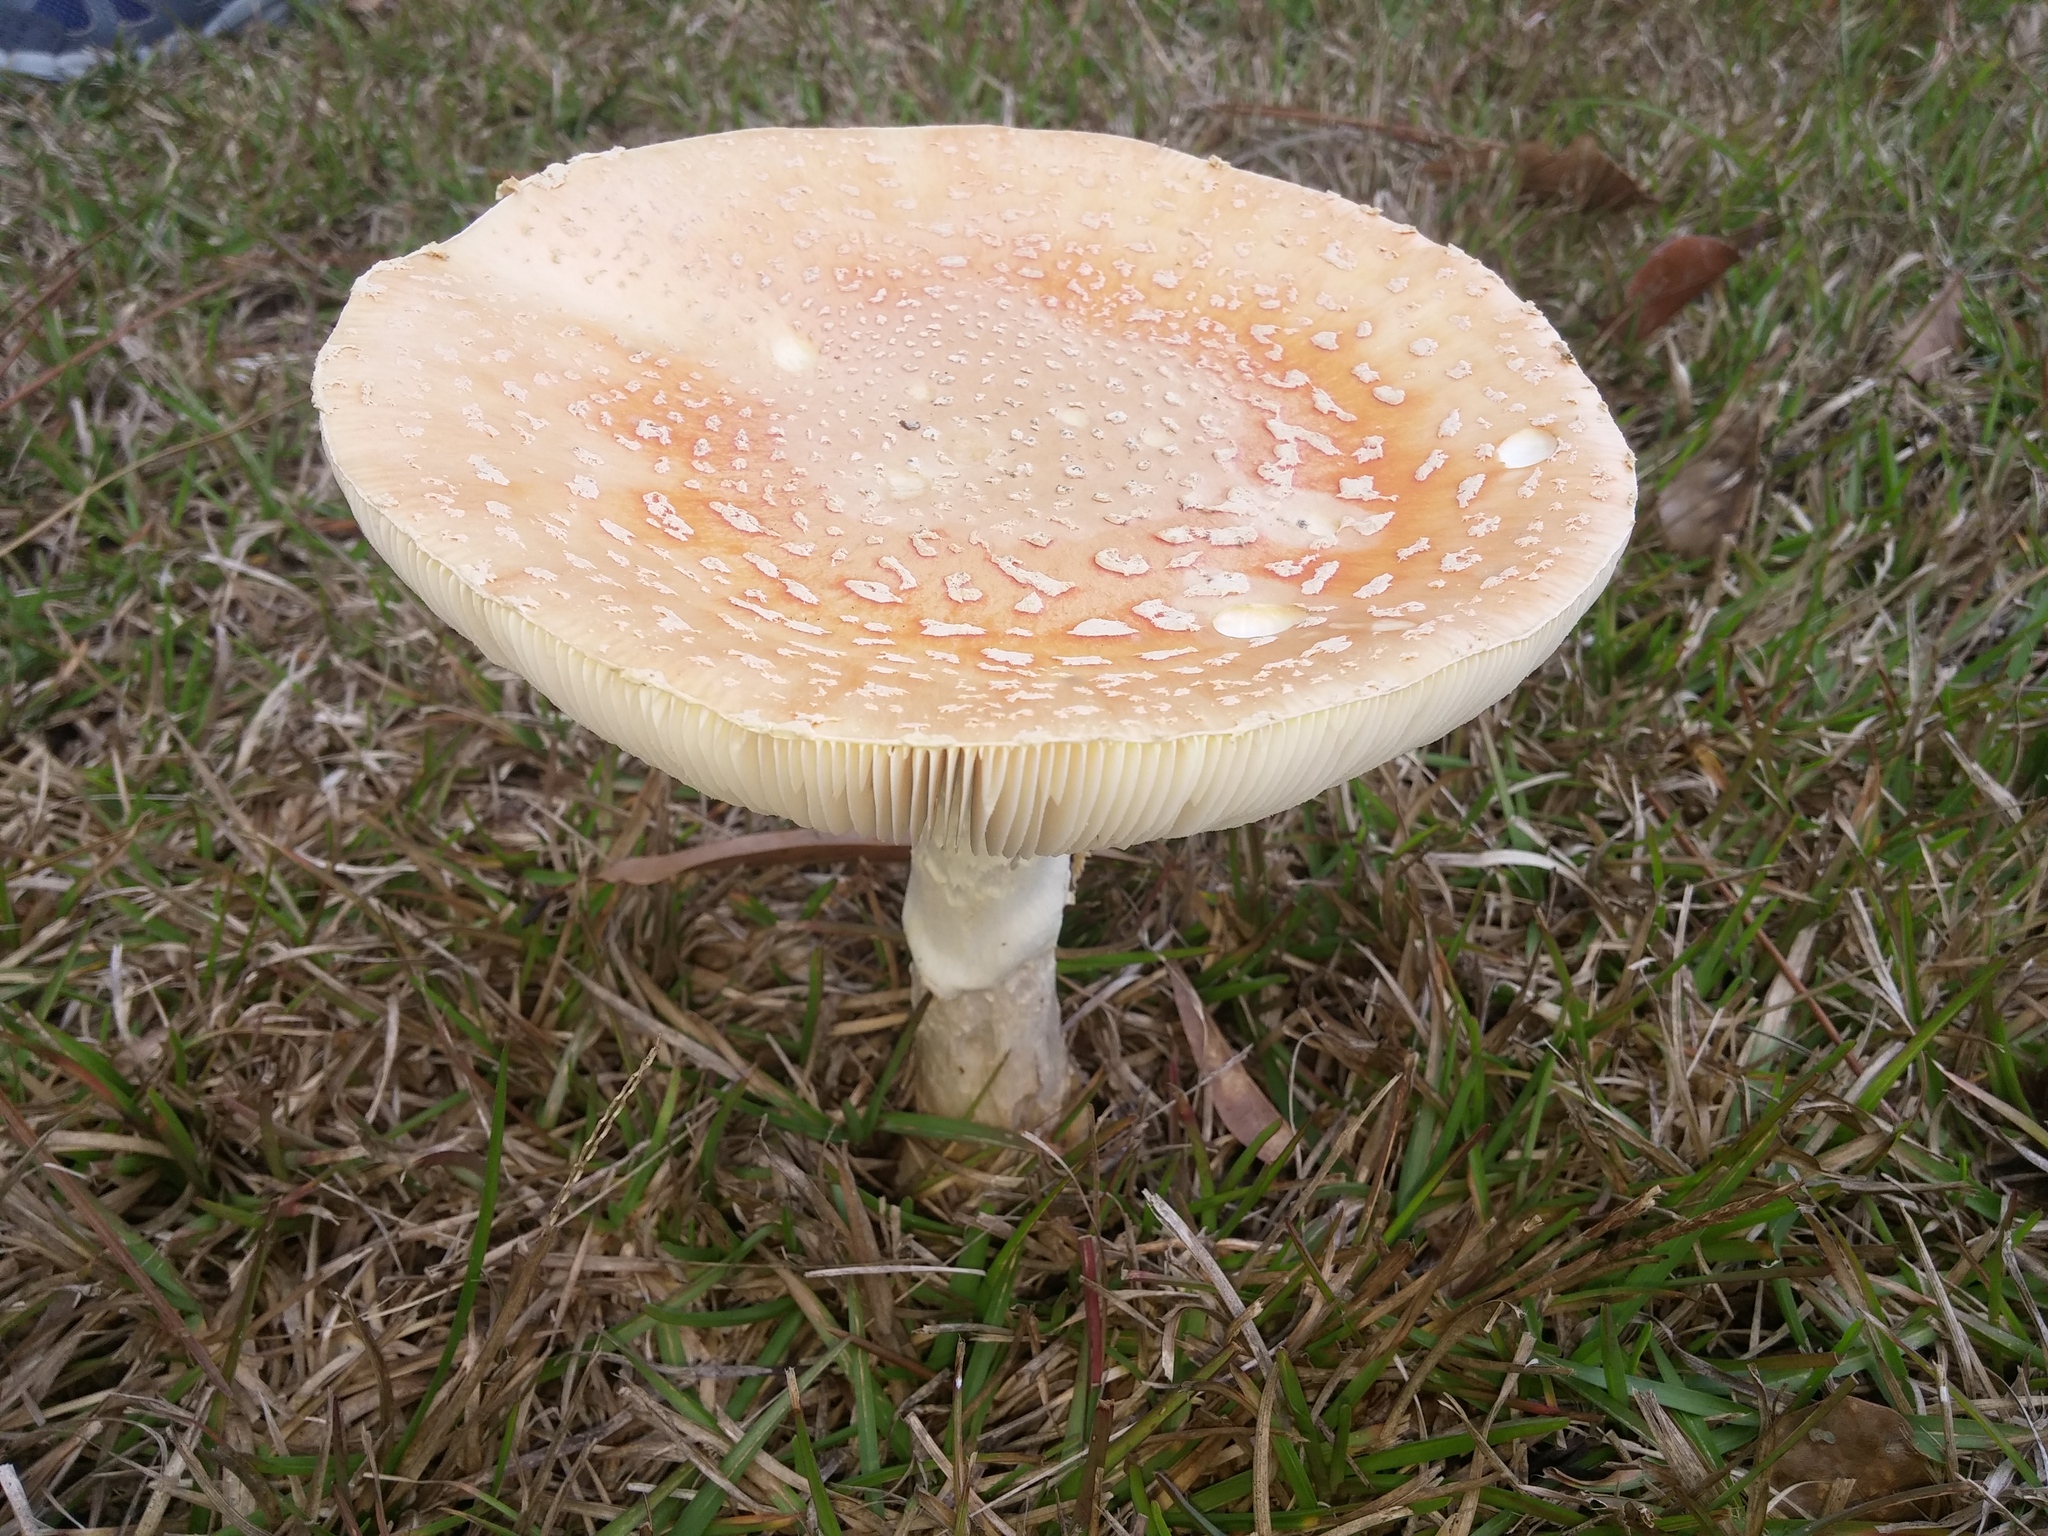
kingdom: Fungi
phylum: Basidiomycota
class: Agaricomycetes
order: Agaricales
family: Amanitaceae
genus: Amanita
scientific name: Amanita persicina
